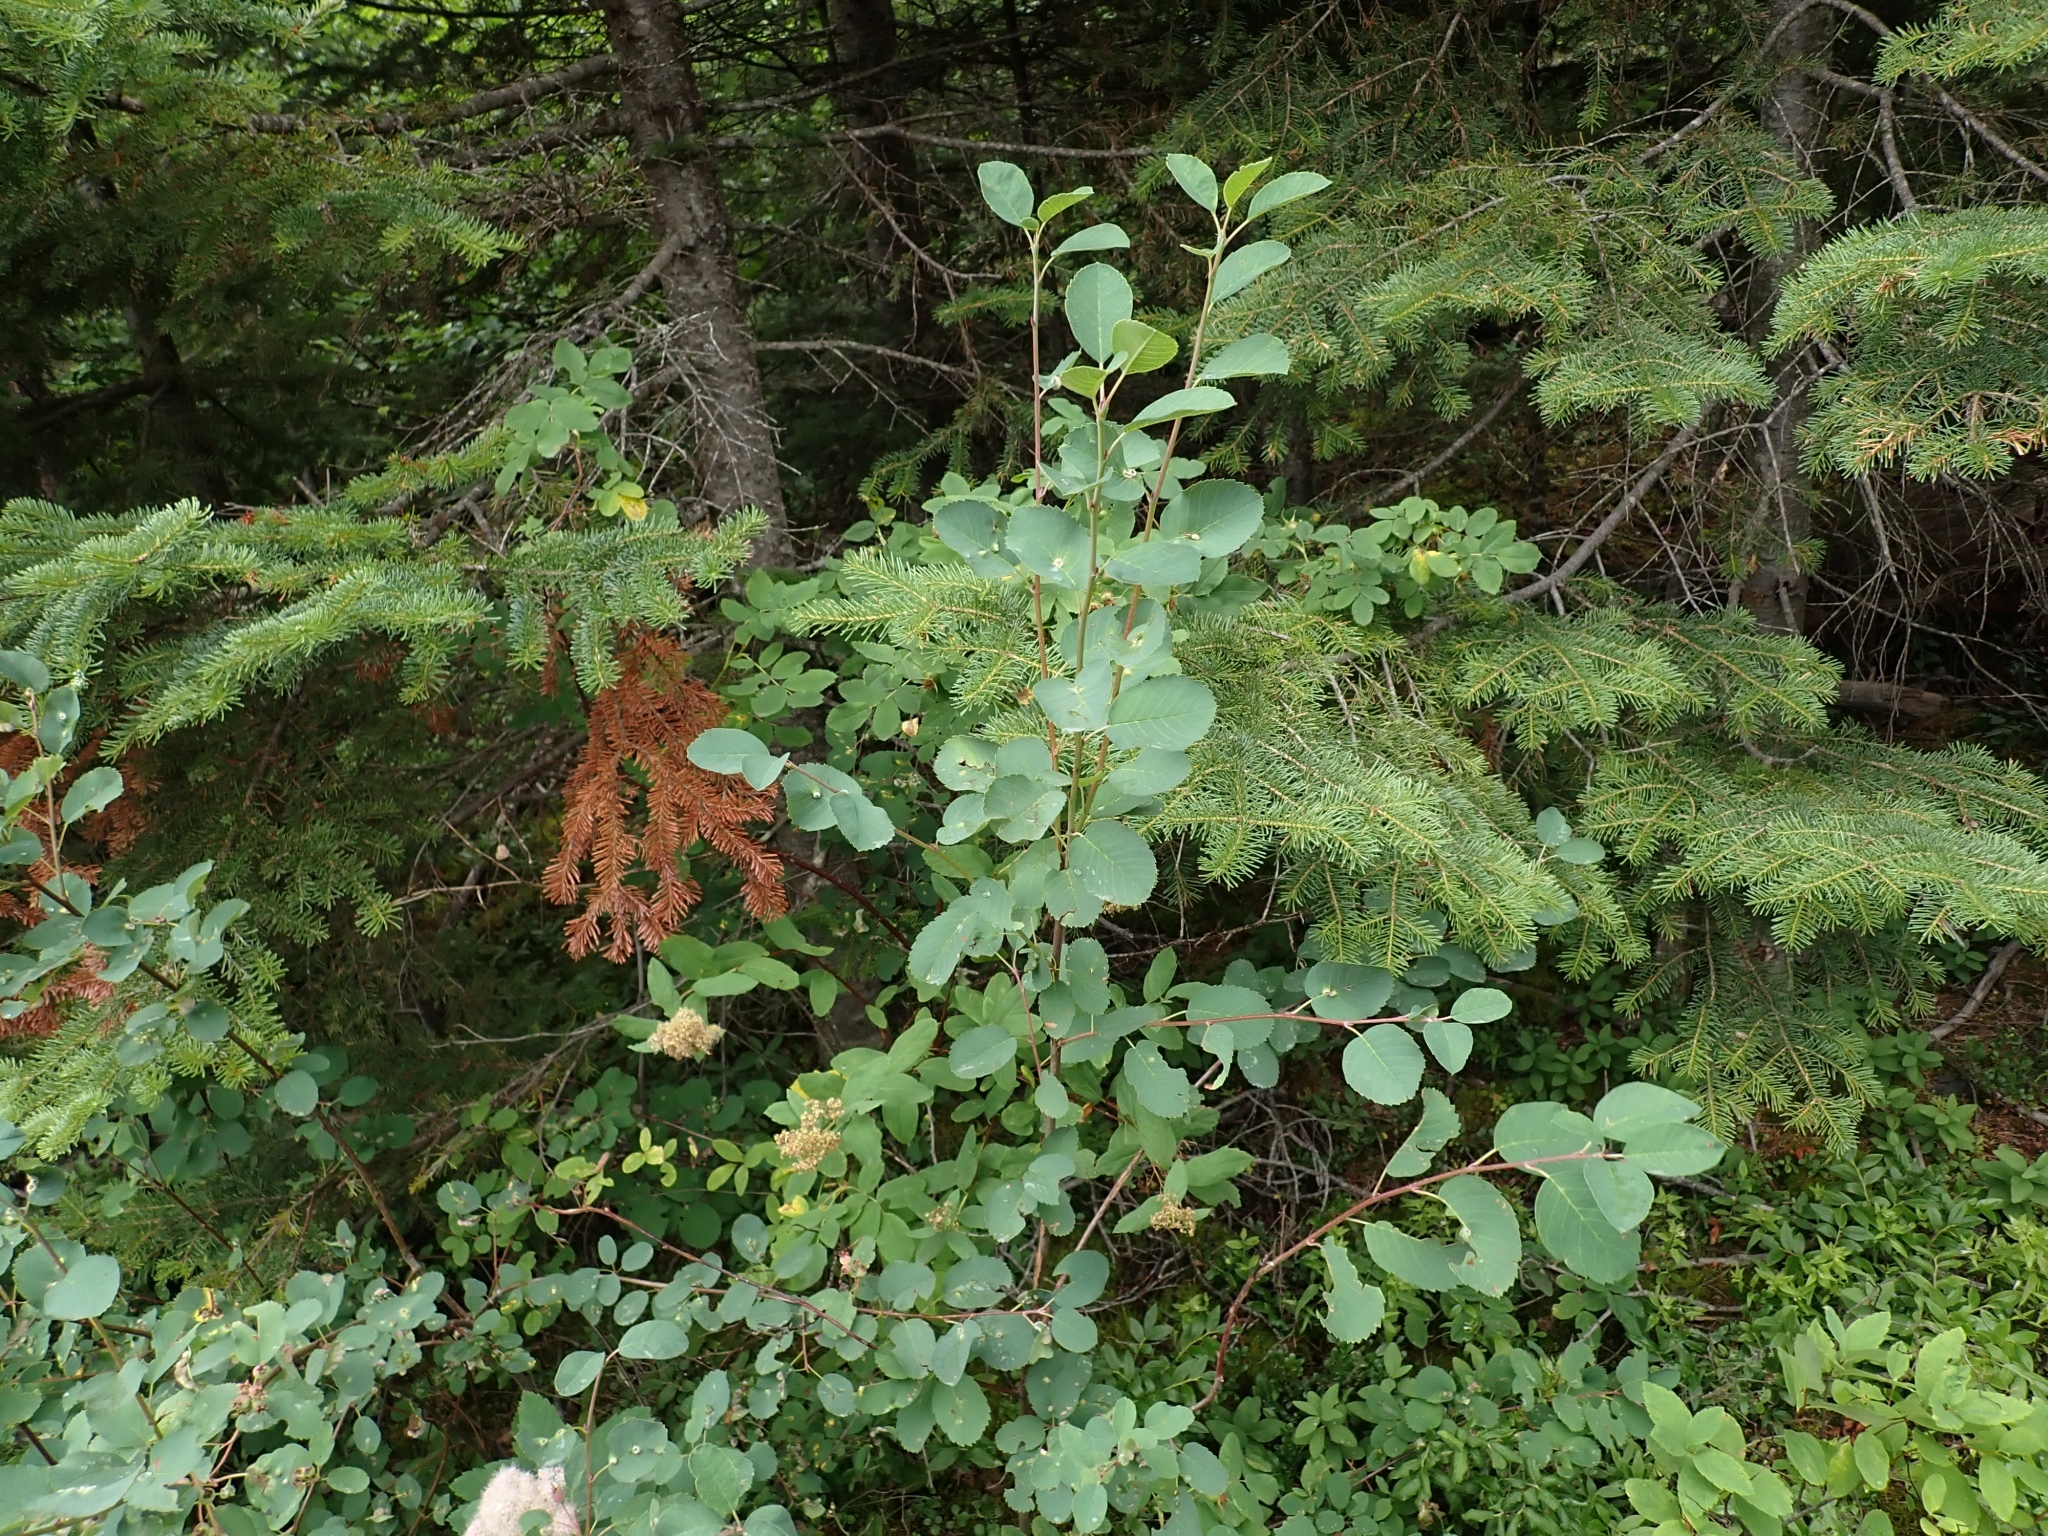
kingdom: Plantae
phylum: Tracheophyta
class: Magnoliopsida
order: Rosales
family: Rosaceae
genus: Amelanchier
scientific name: Amelanchier alnifolia
